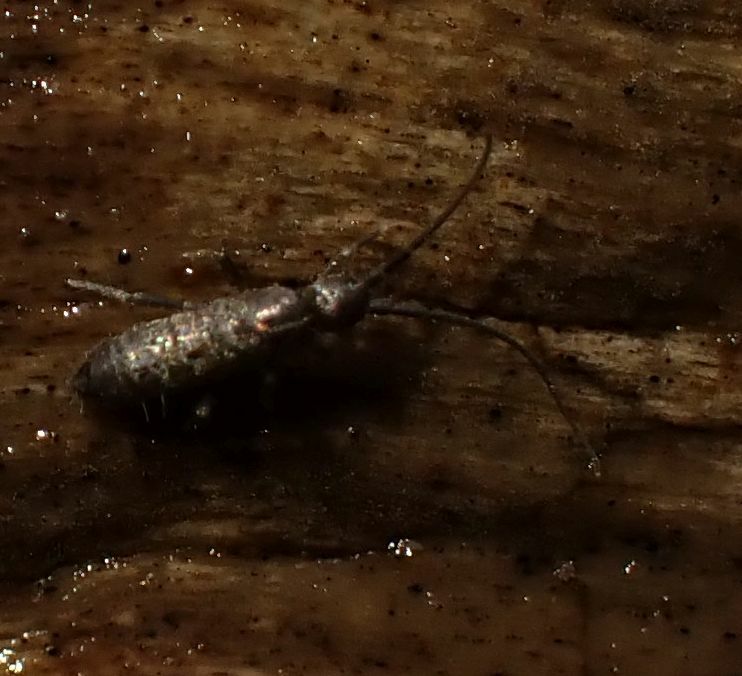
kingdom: Animalia
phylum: Arthropoda
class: Collembola
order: Entomobryomorpha
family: Tomoceridae
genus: Pogonognathellus
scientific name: Pogonognathellus longicornis
